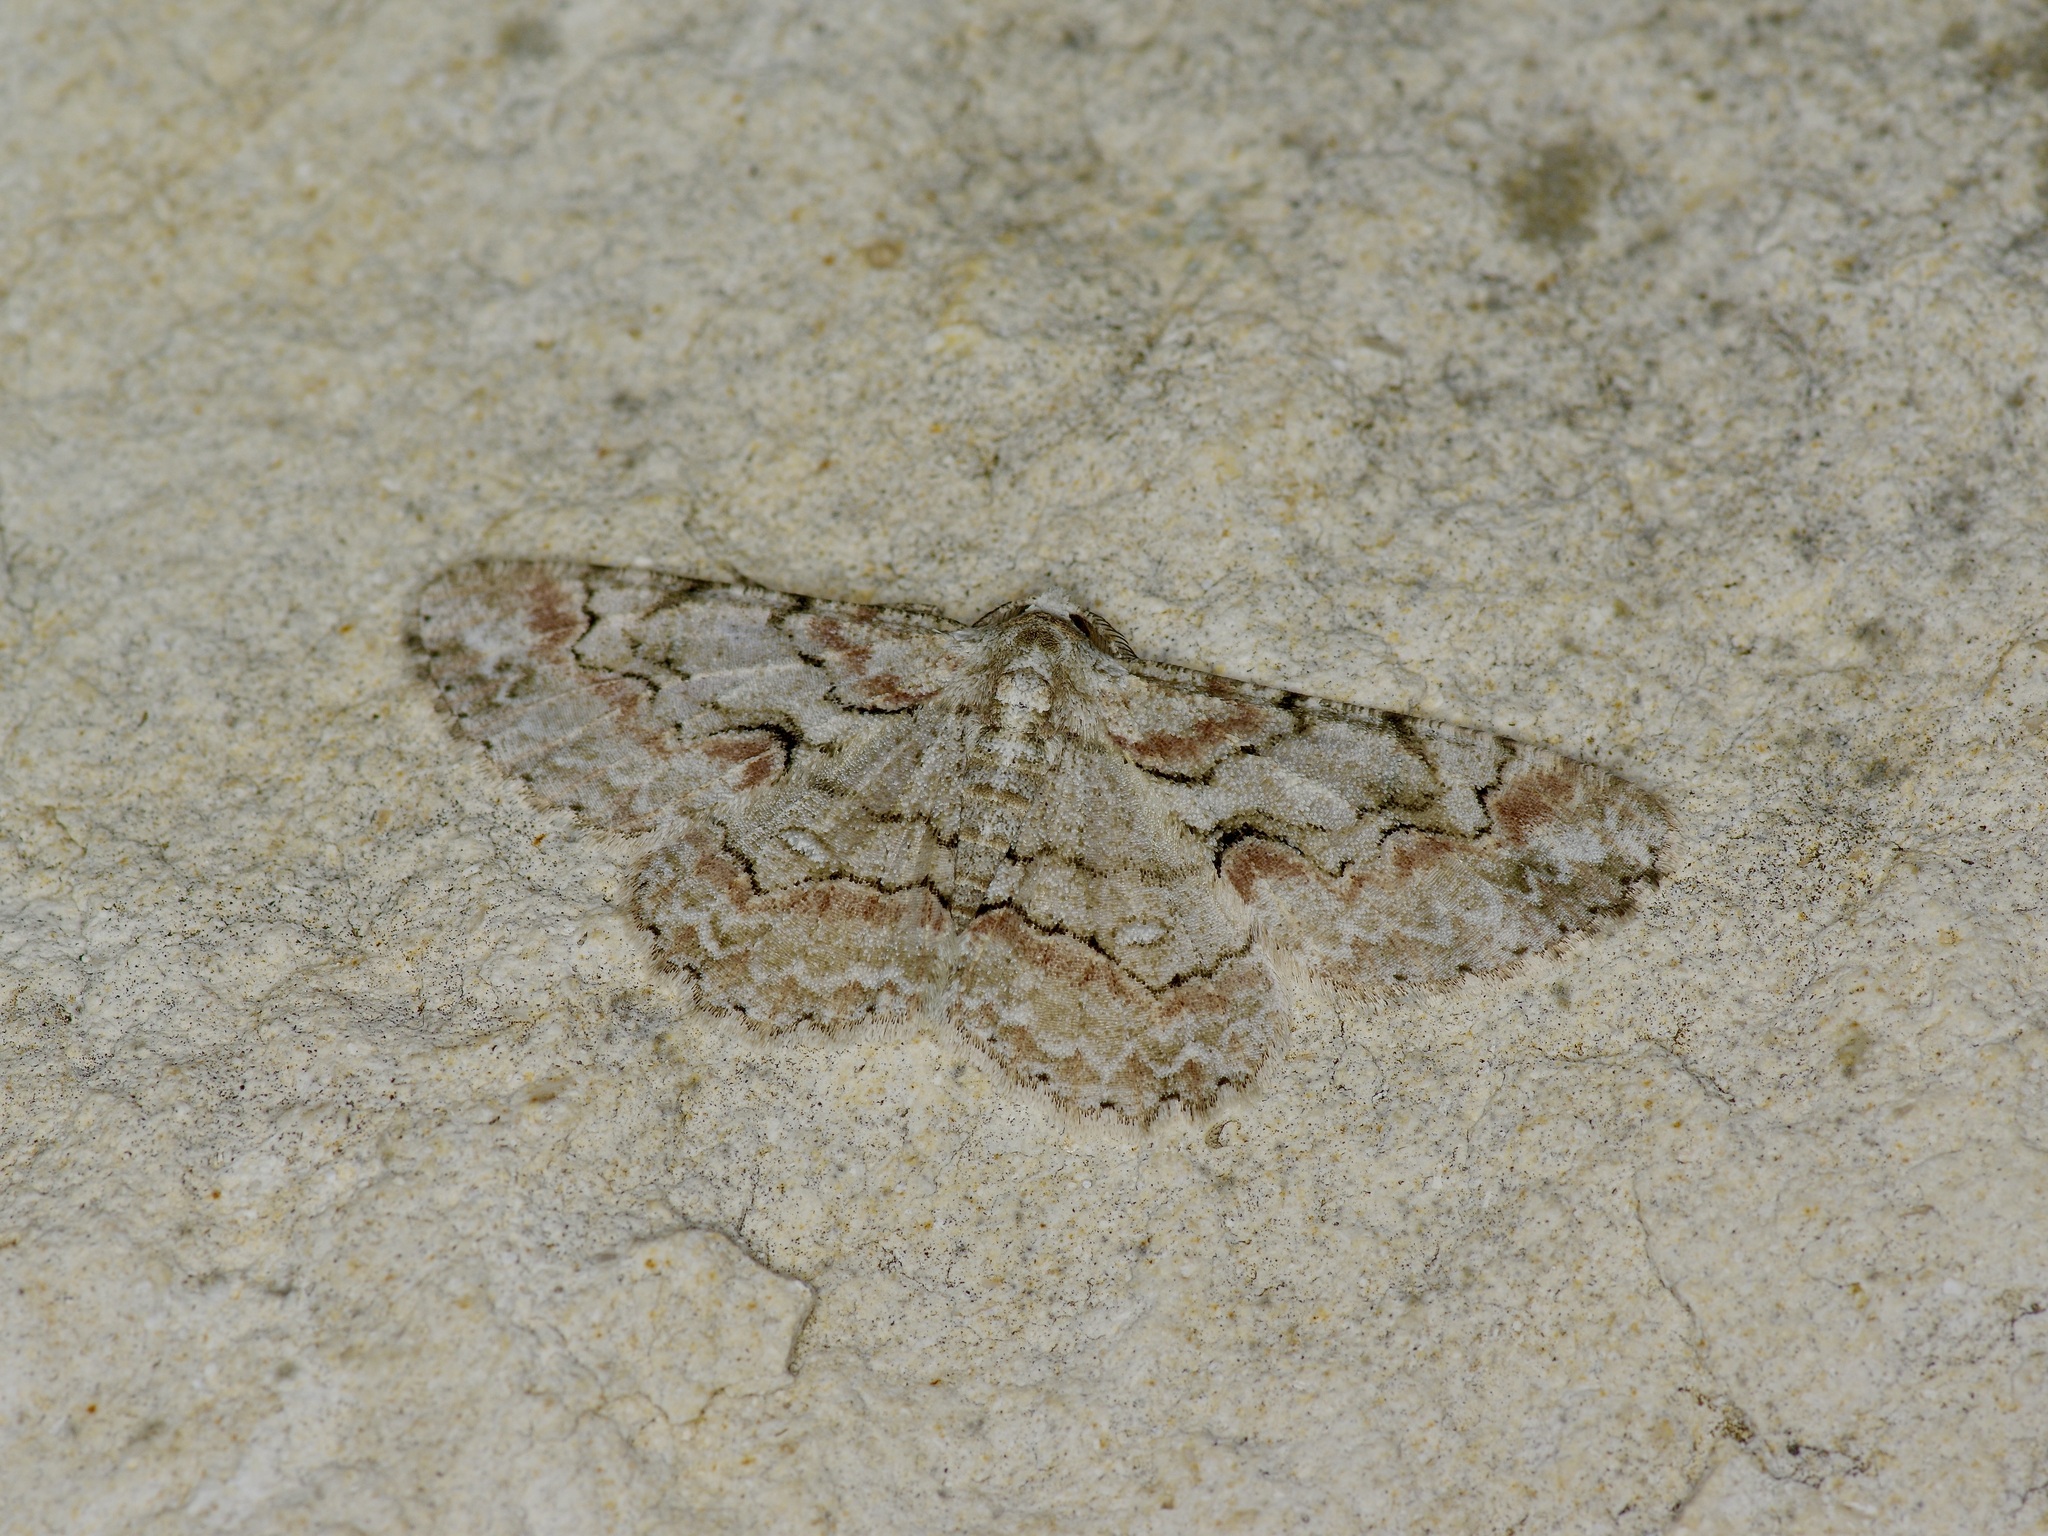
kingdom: Animalia
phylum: Arthropoda
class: Insecta
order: Lepidoptera
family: Geometridae
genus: Iridopsis
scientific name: Iridopsis defectaria
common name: Brown-shaded gray
